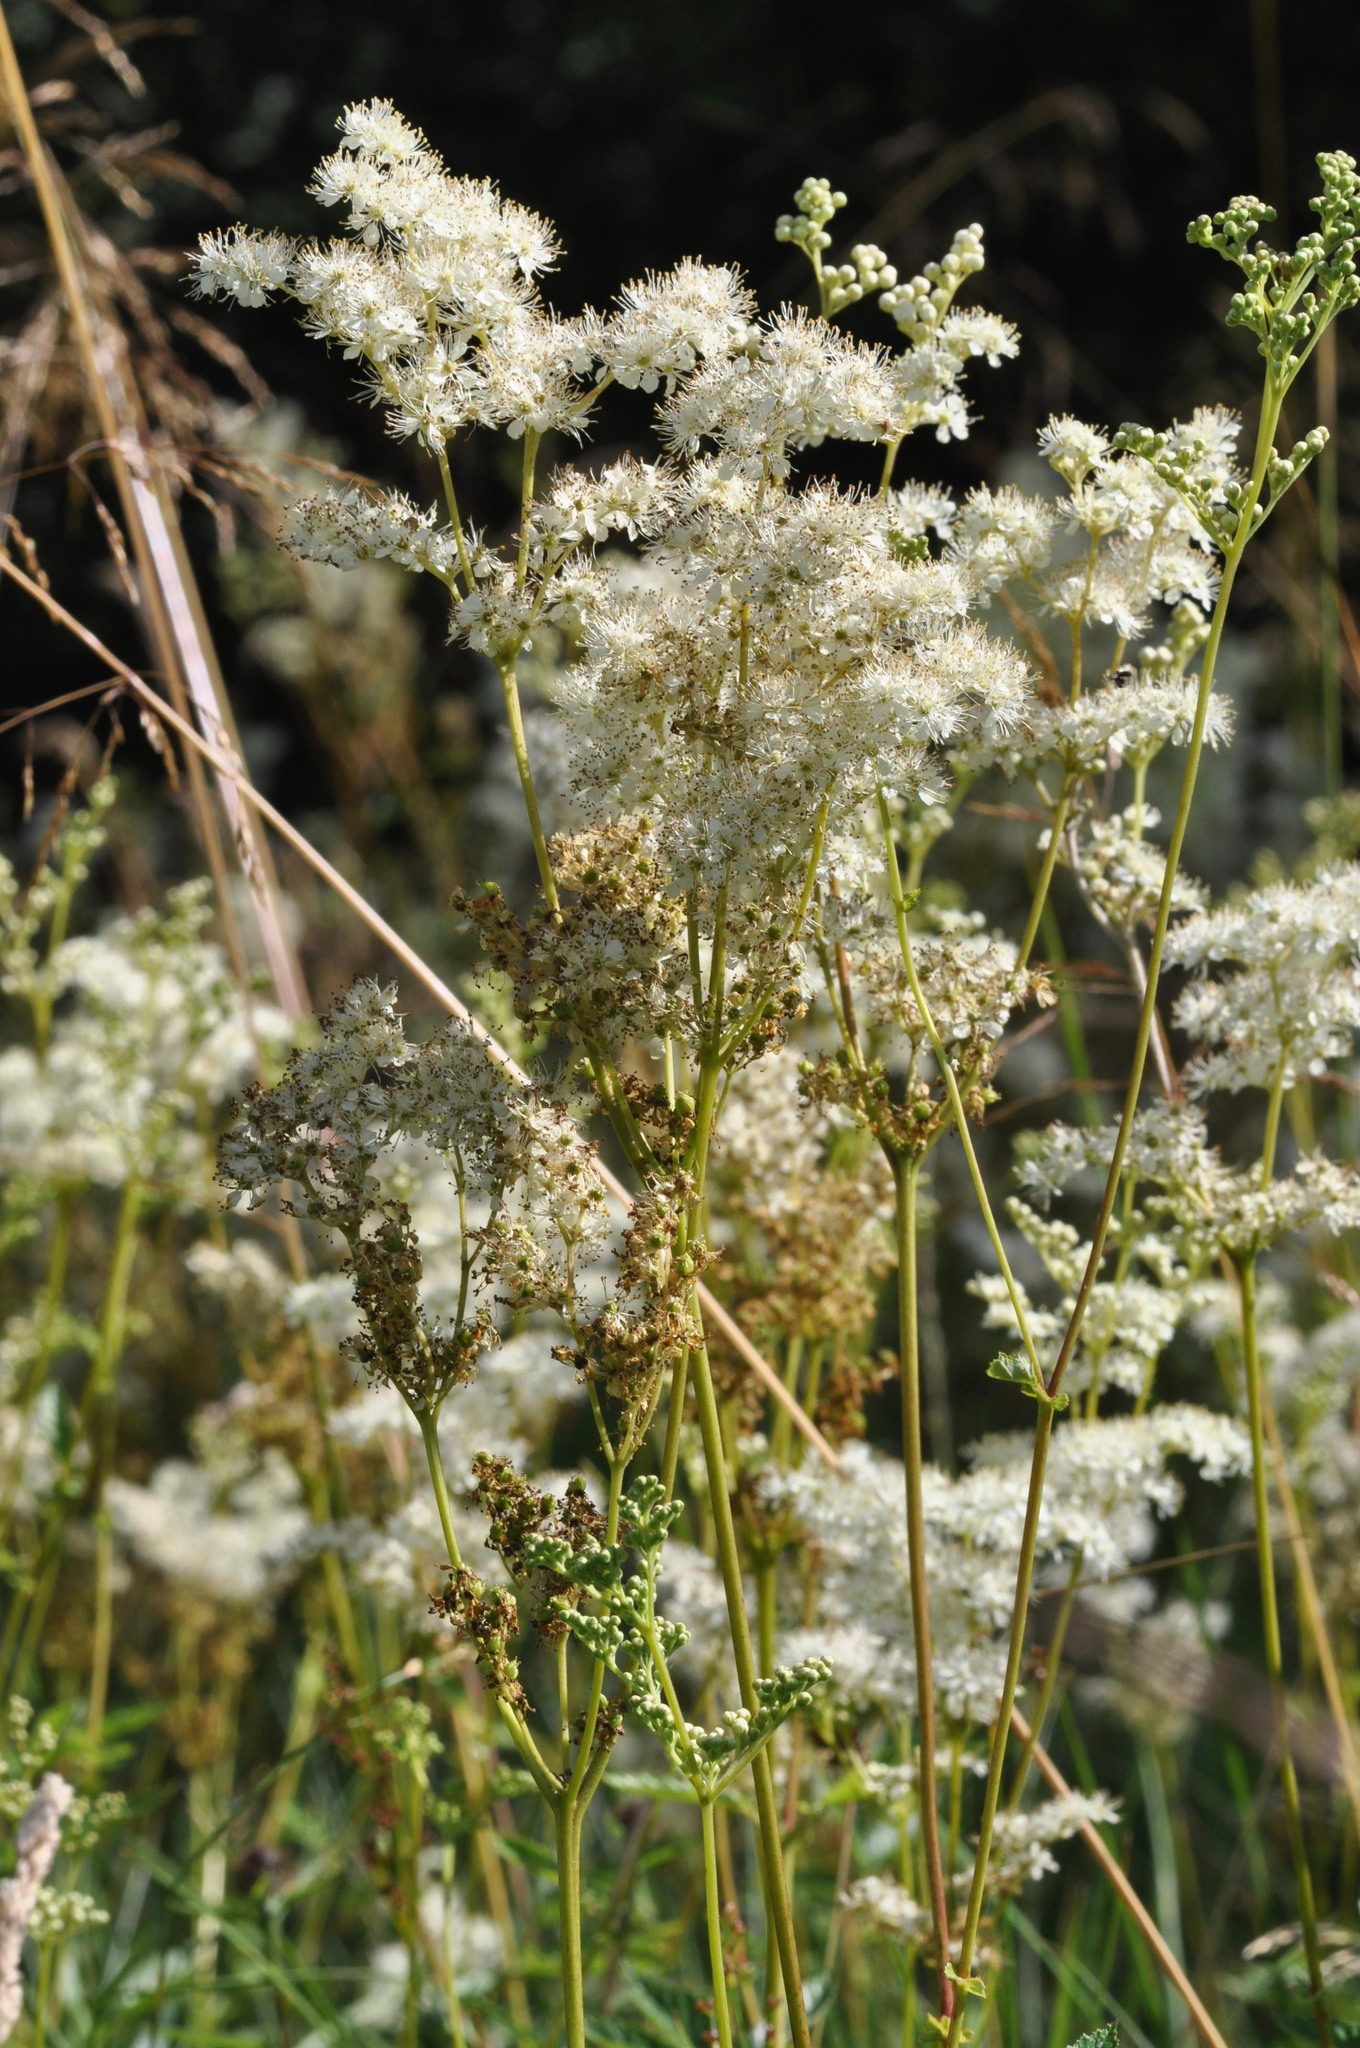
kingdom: Plantae
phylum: Tracheophyta
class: Magnoliopsida
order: Rosales
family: Rosaceae
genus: Filipendula
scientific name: Filipendula ulmaria
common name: Meadowsweet
